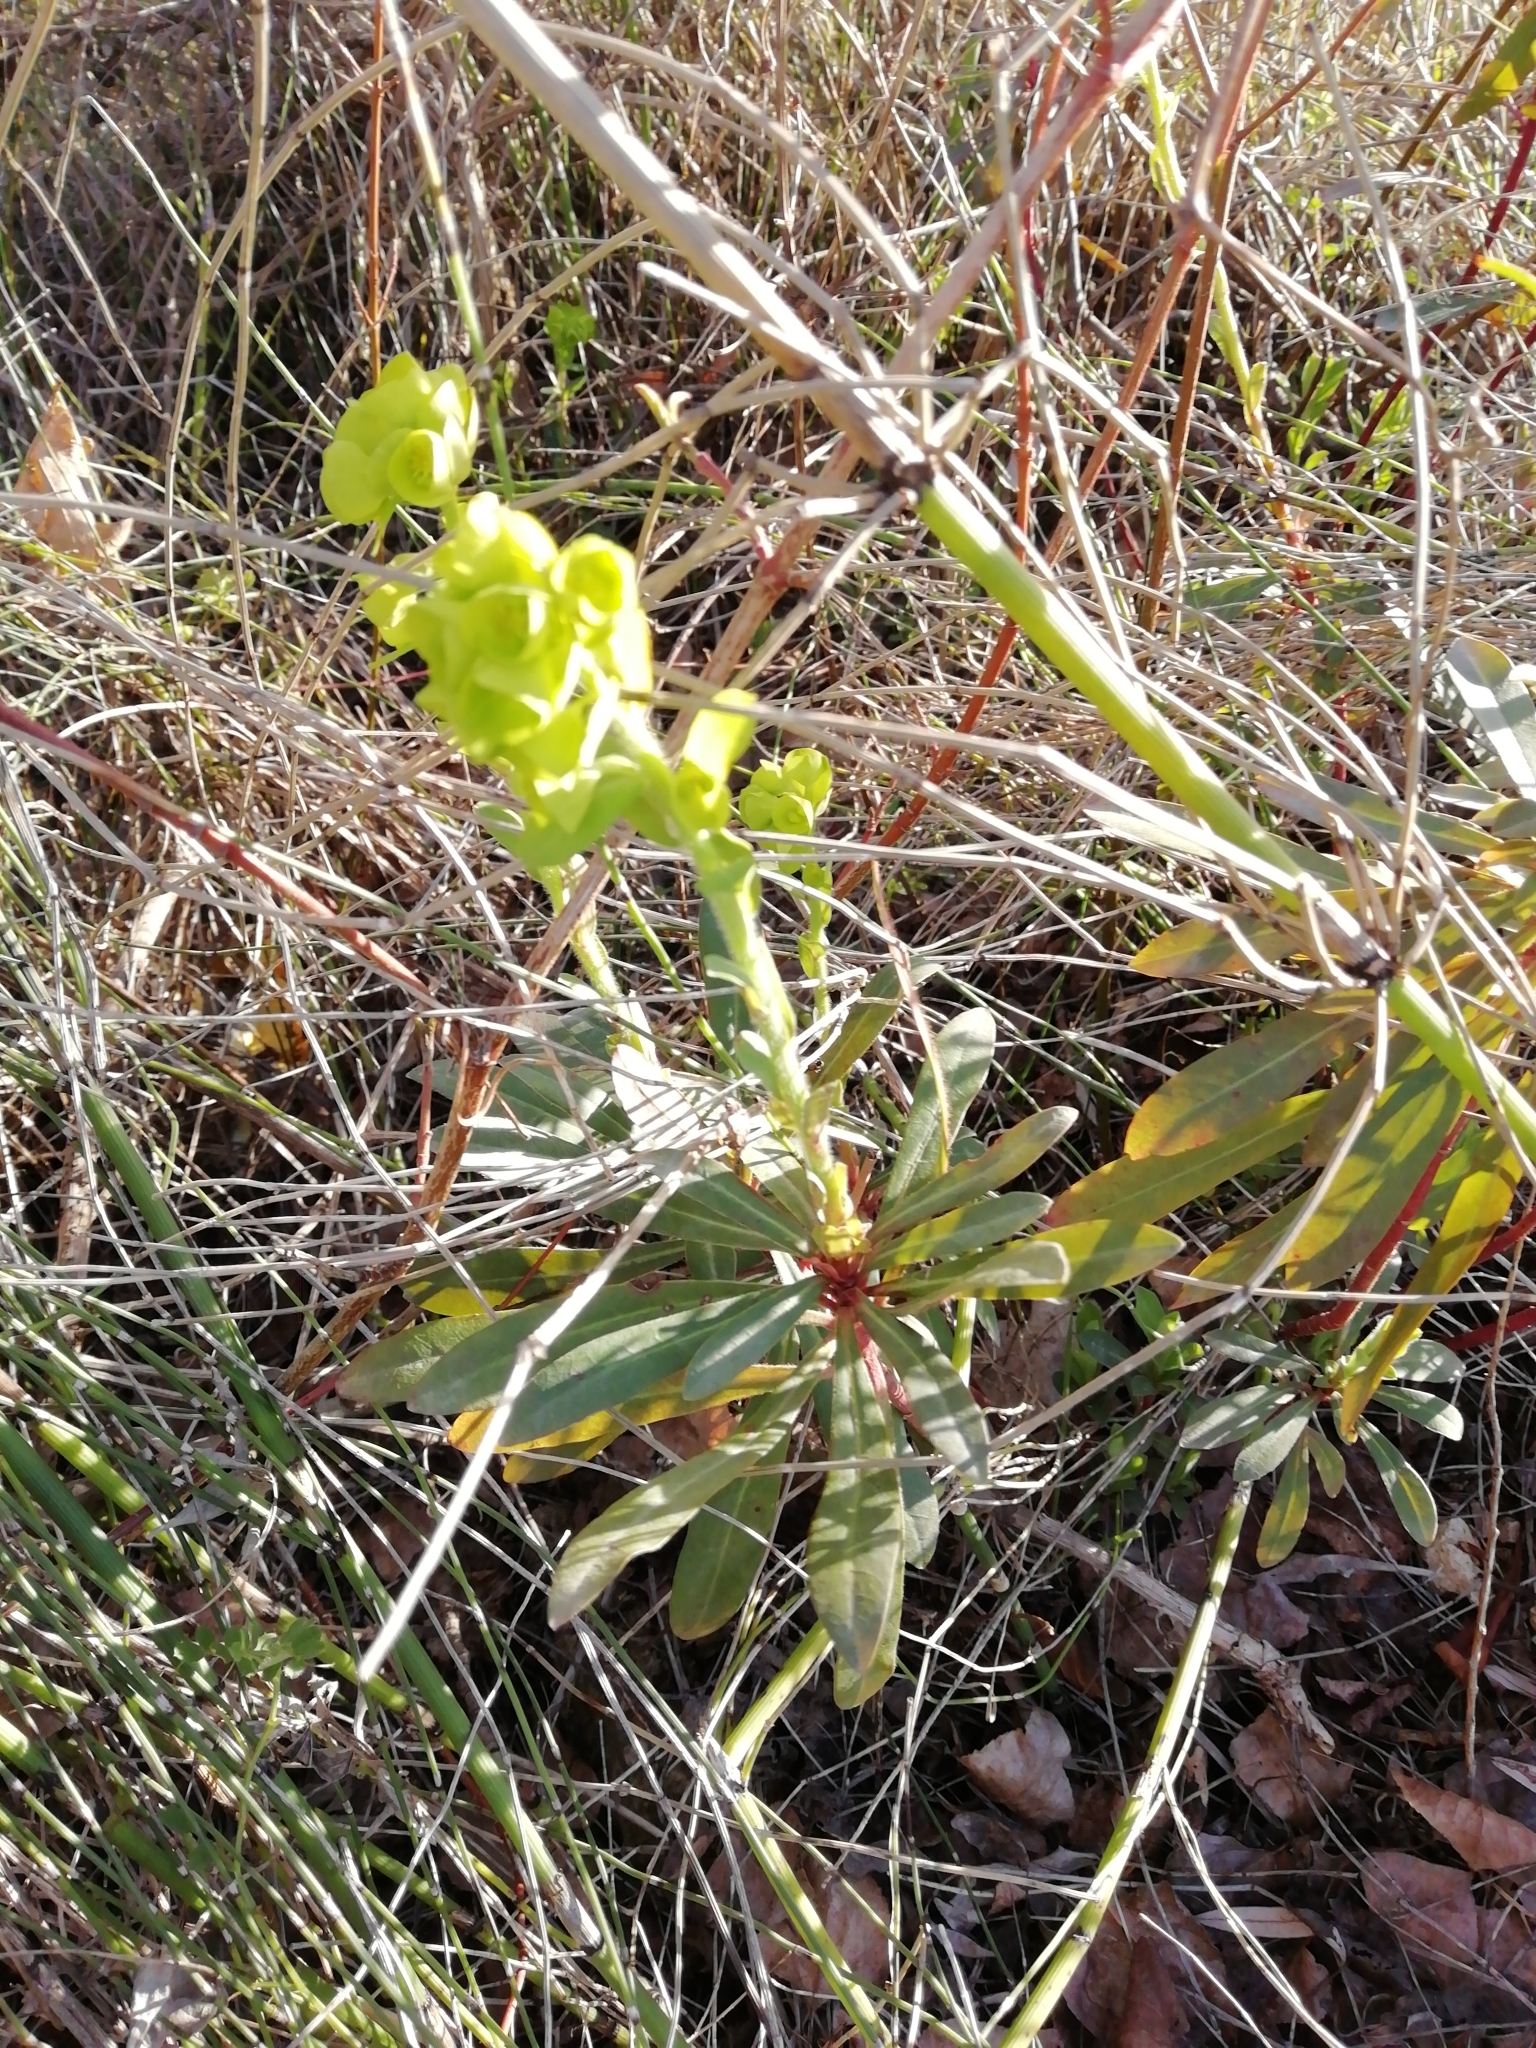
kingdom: Plantae
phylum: Tracheophyta
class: Magnoliopsida
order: Malpighiales
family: Euphorbiaceae
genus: Euphorbia
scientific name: Euphorbia amygdaloides
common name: Wood spurge
